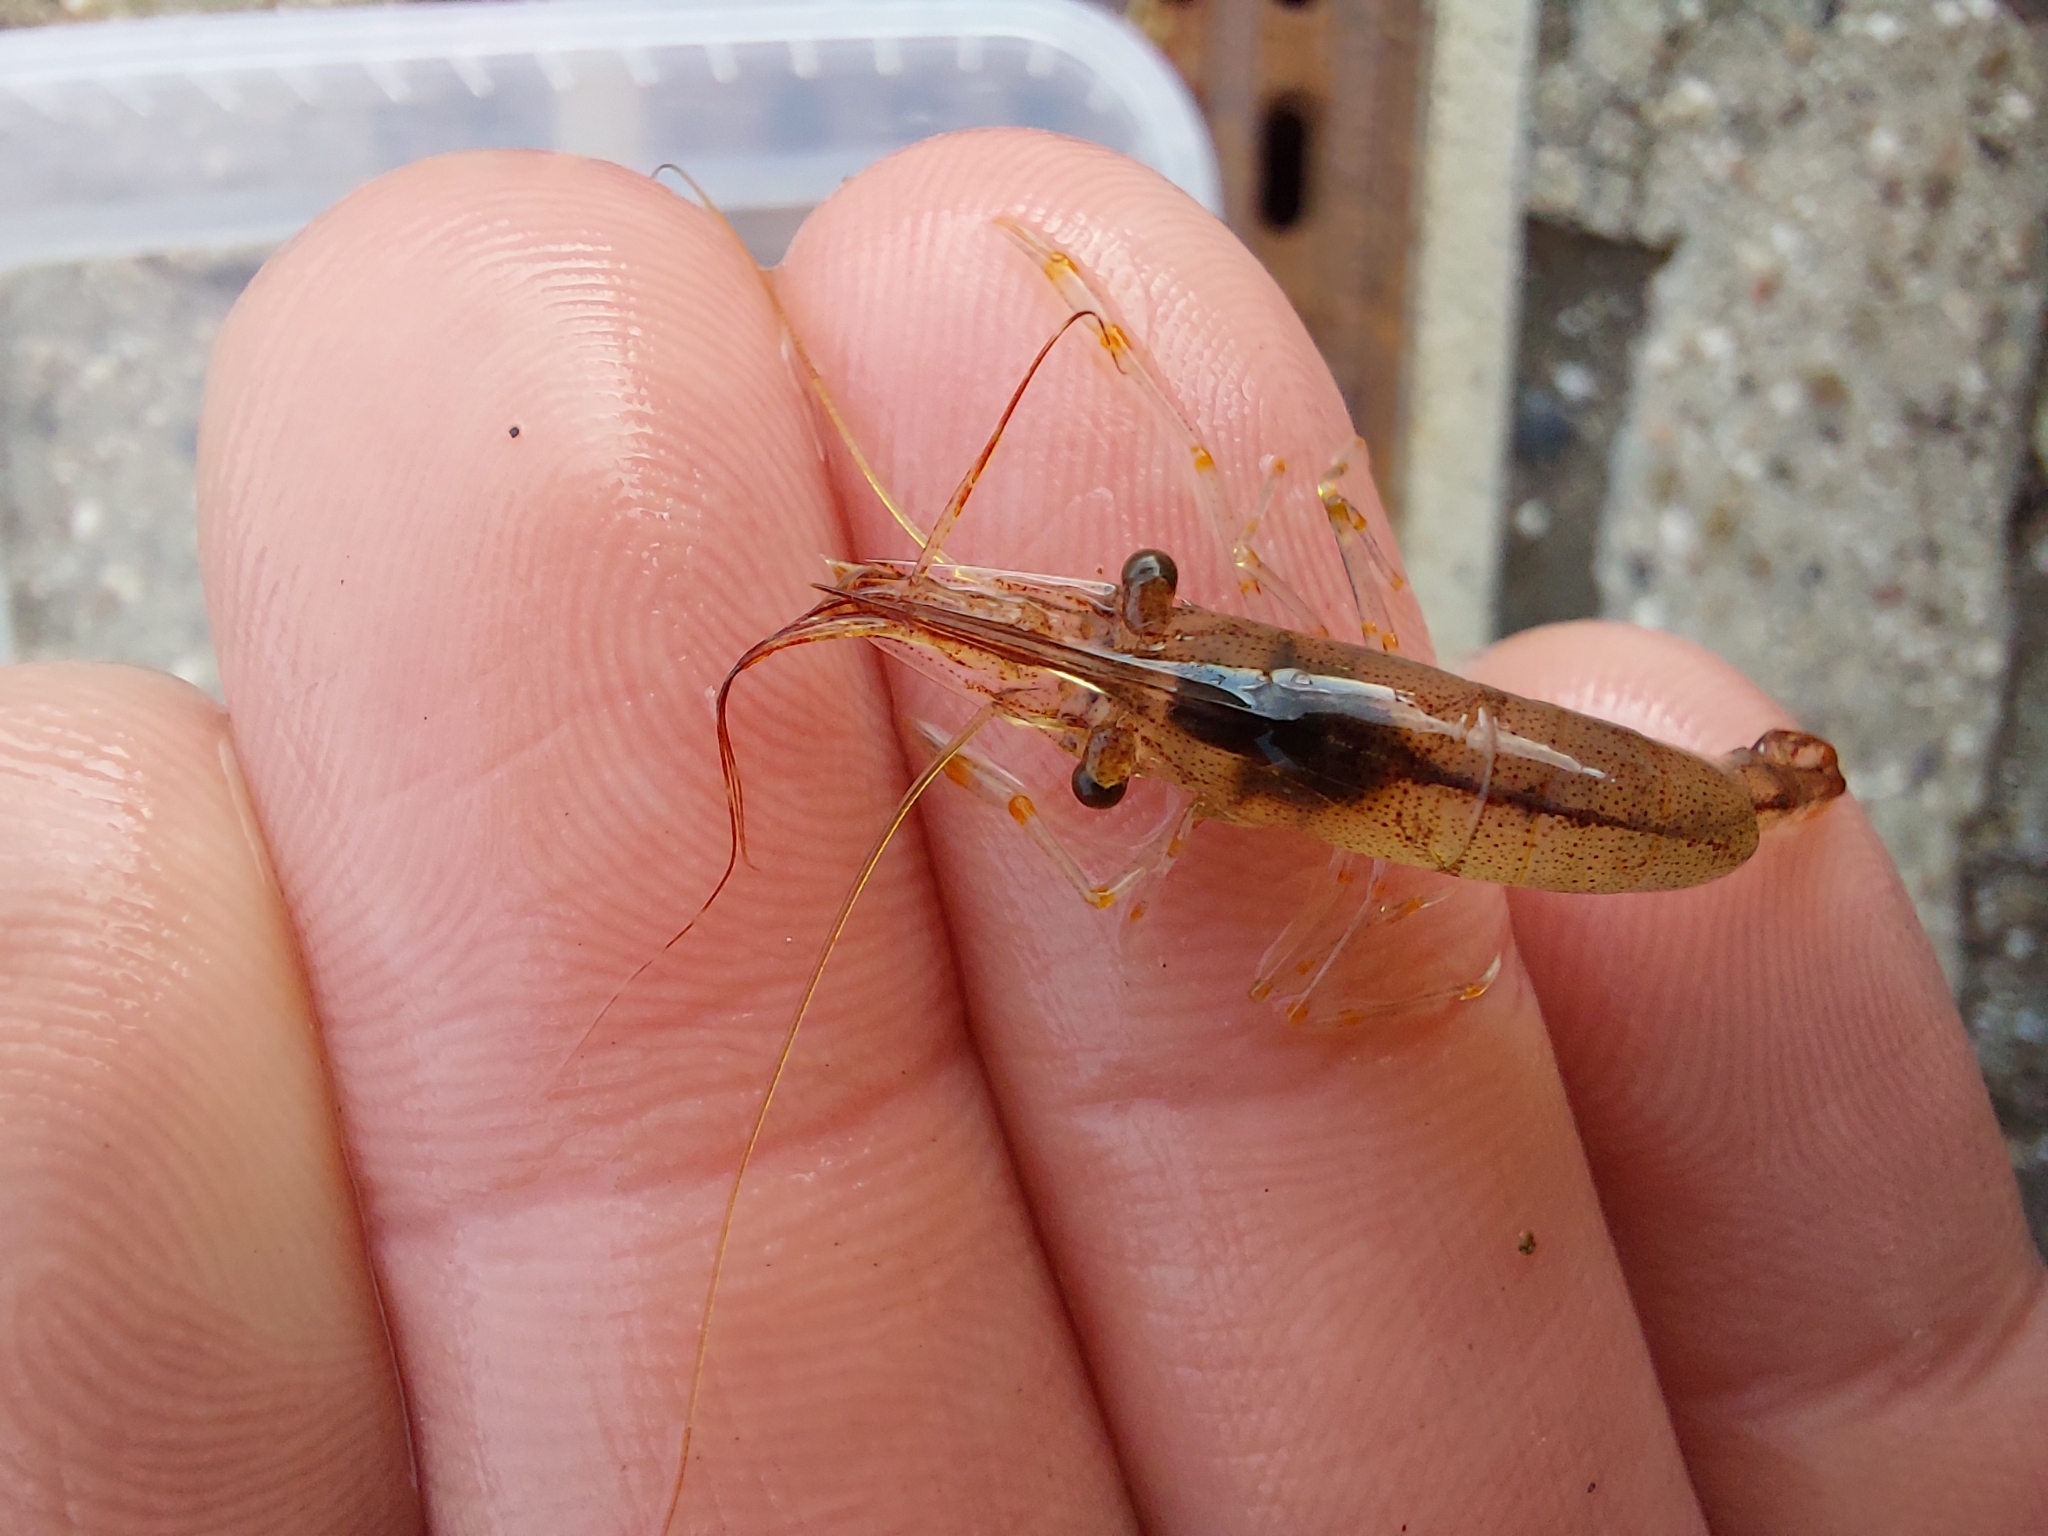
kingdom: Animalia
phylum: Arthropoda
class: Malacostraca
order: Decapoda
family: Palaemonidae
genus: Palaemon
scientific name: Palaemon adspersus
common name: Baltic prawn
